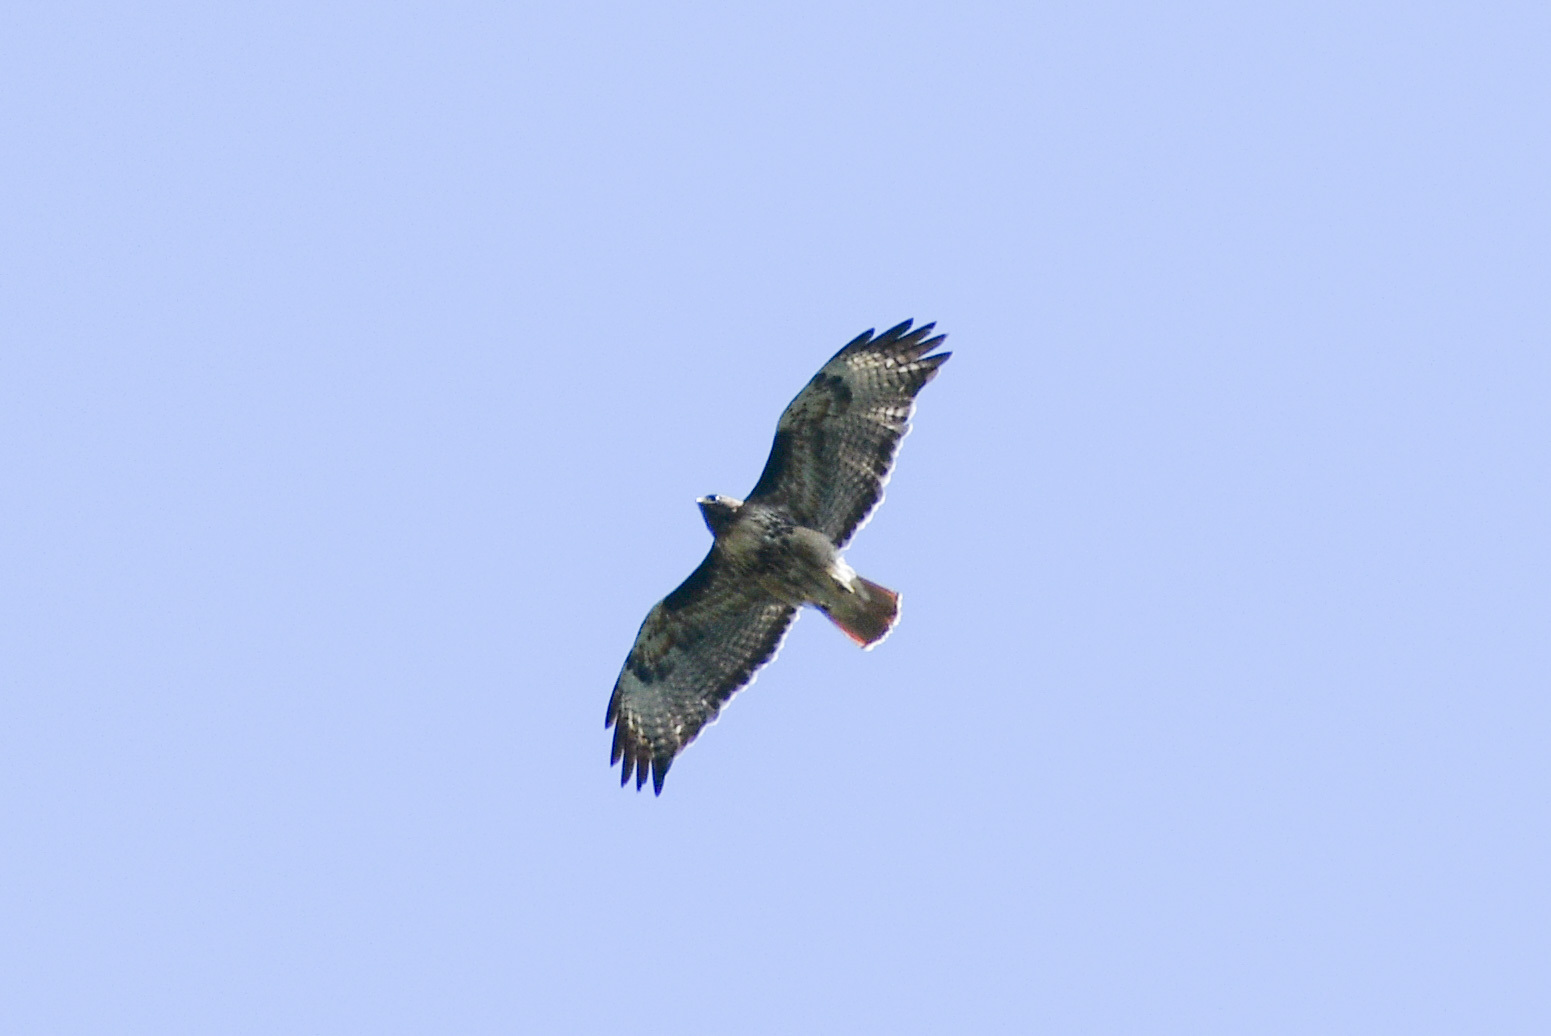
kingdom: Animalia
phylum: Chordata
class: Aves
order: Accipitriformes
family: Accipitridae
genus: Buteo
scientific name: Buteo jamaicensis
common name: Red-tailed hawk
